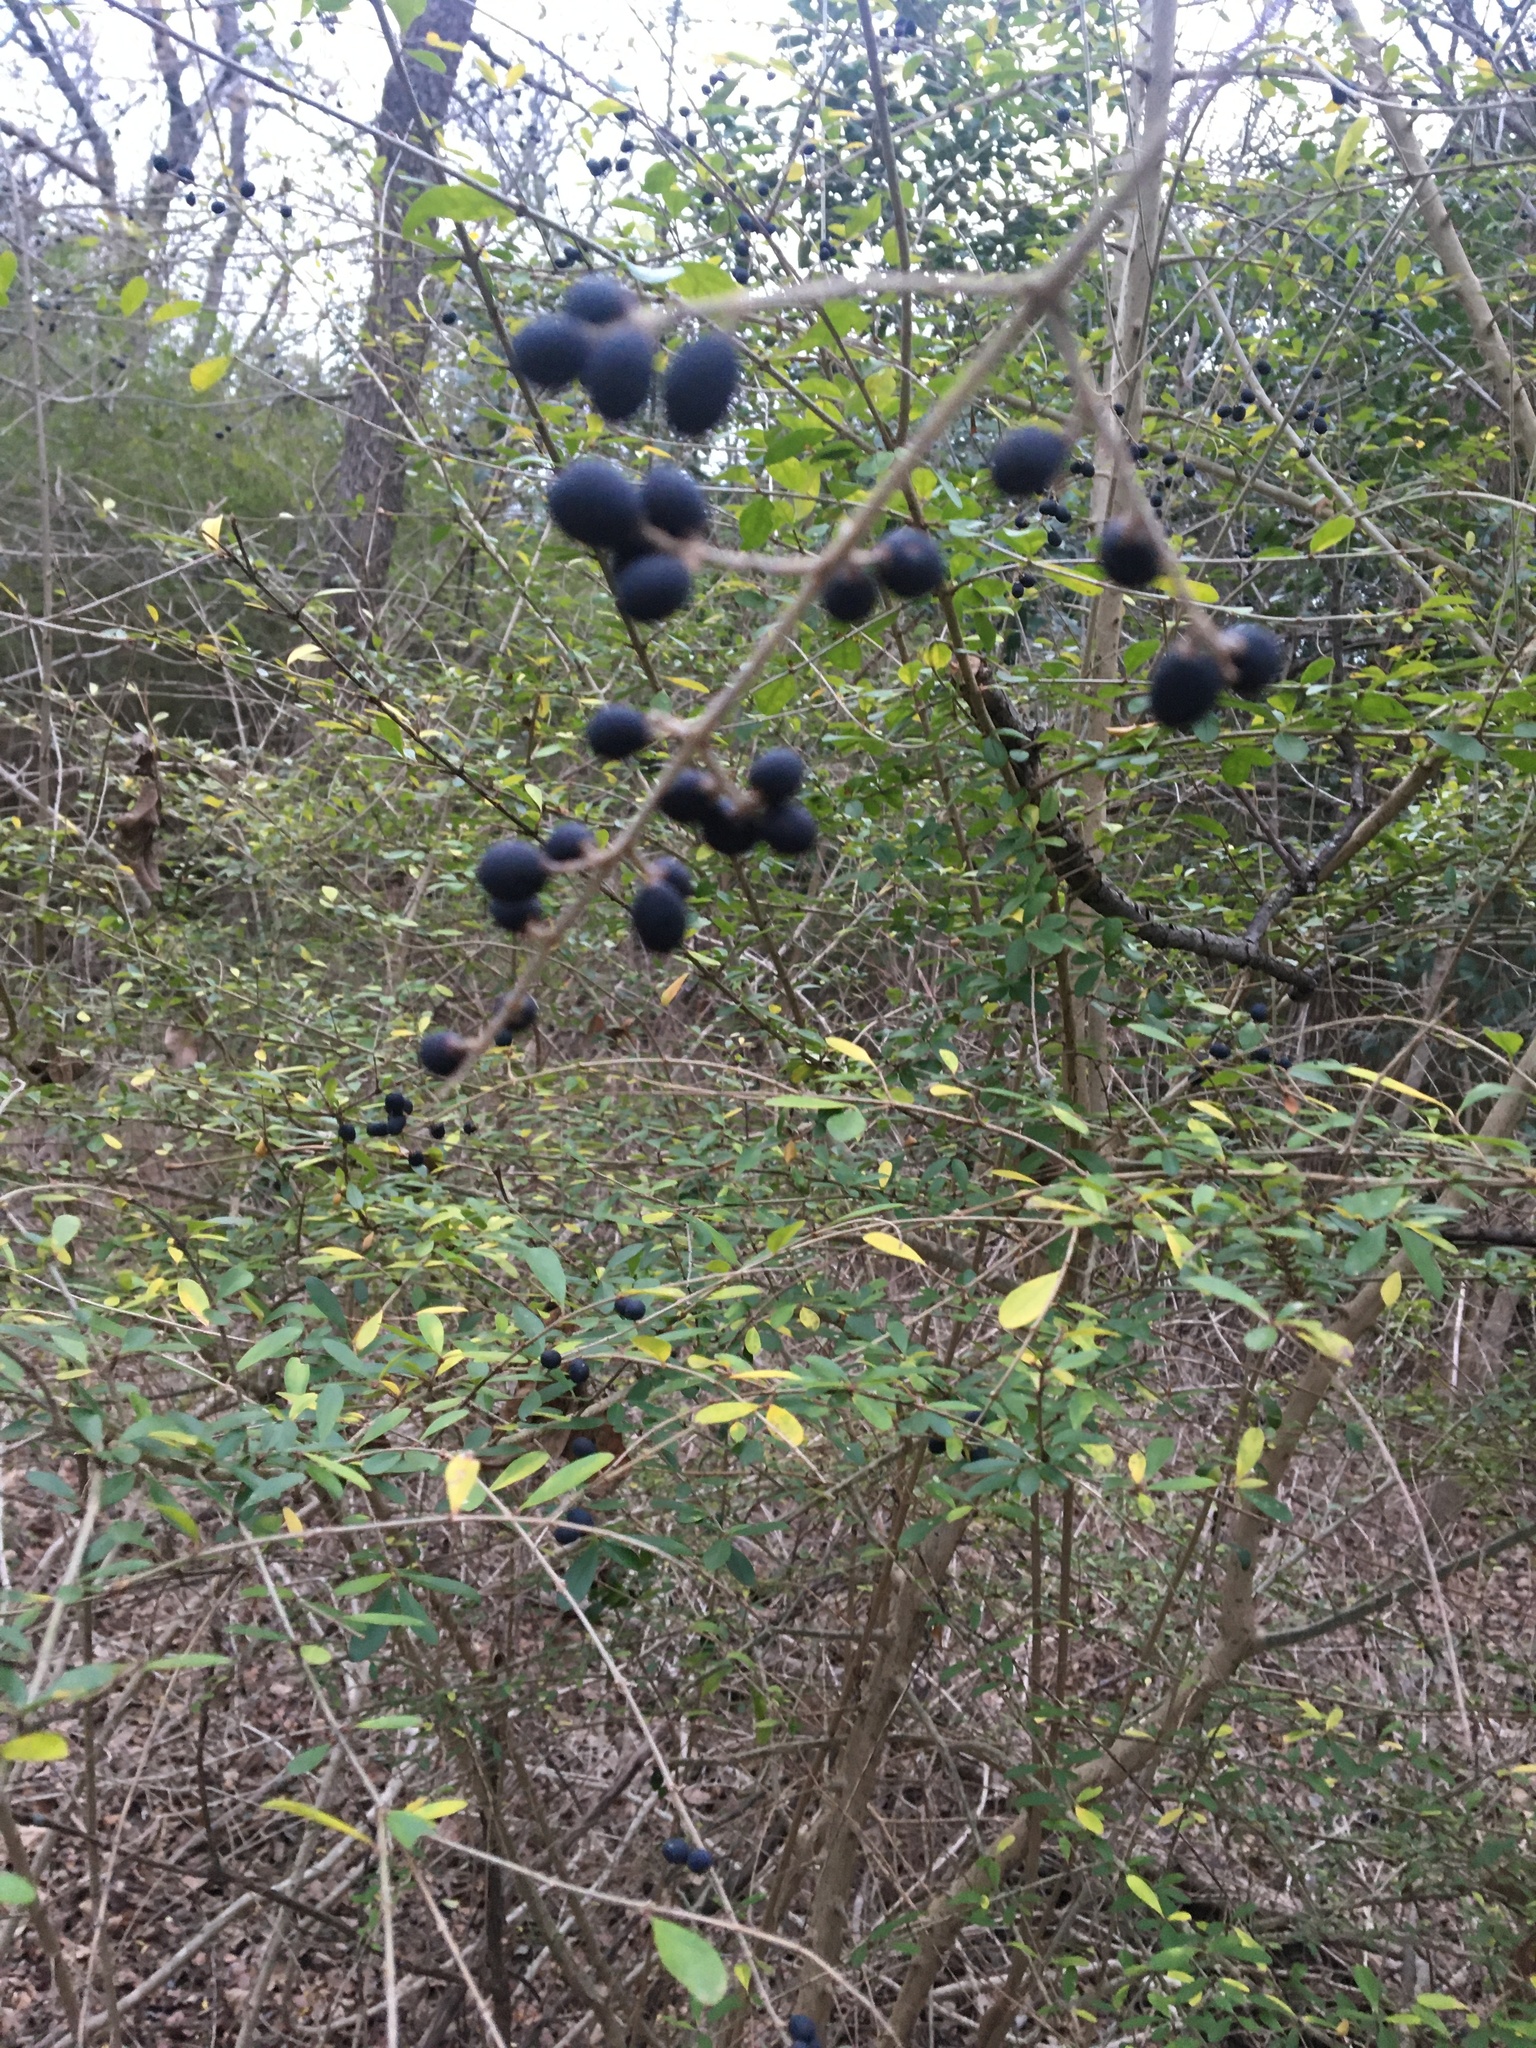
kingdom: Plantae
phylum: Tracheophyta
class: Magnoliopsida
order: Lamiales
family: Oleaceae
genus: Ligustrum
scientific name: Ligustrum quihoui
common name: Waxyleaf privet
